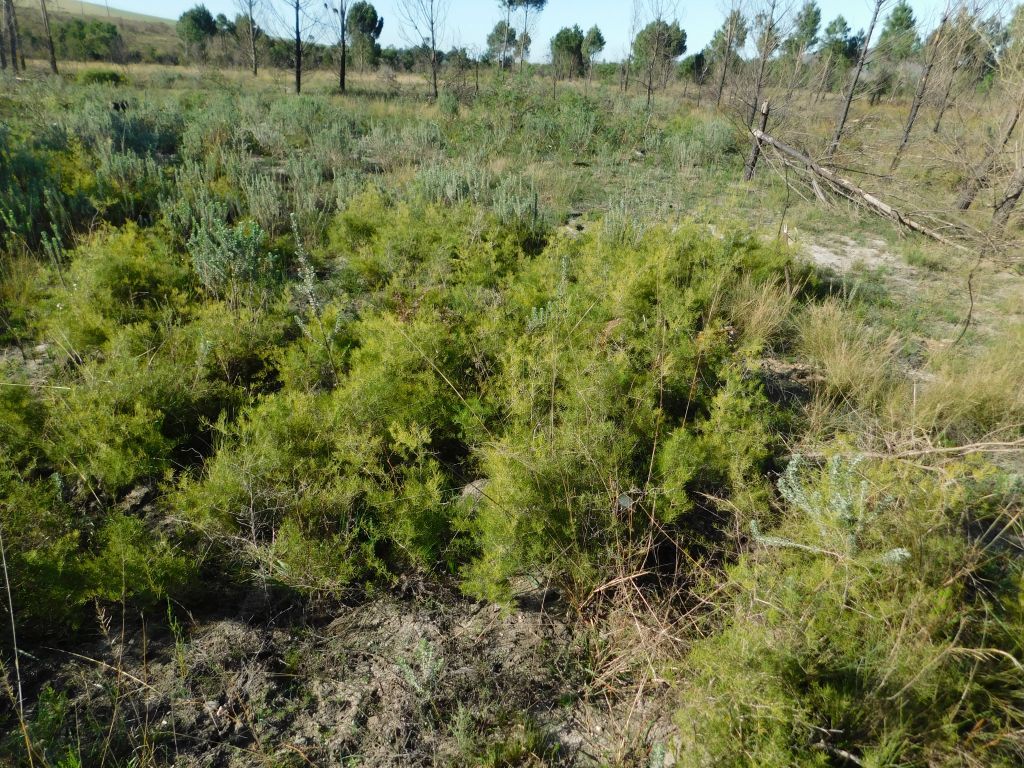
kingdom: Plantae
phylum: Tracheophyta
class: Liliopsida
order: Asparagales
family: Asparagaceae
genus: Asparagus
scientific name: Asparagus lignosus
